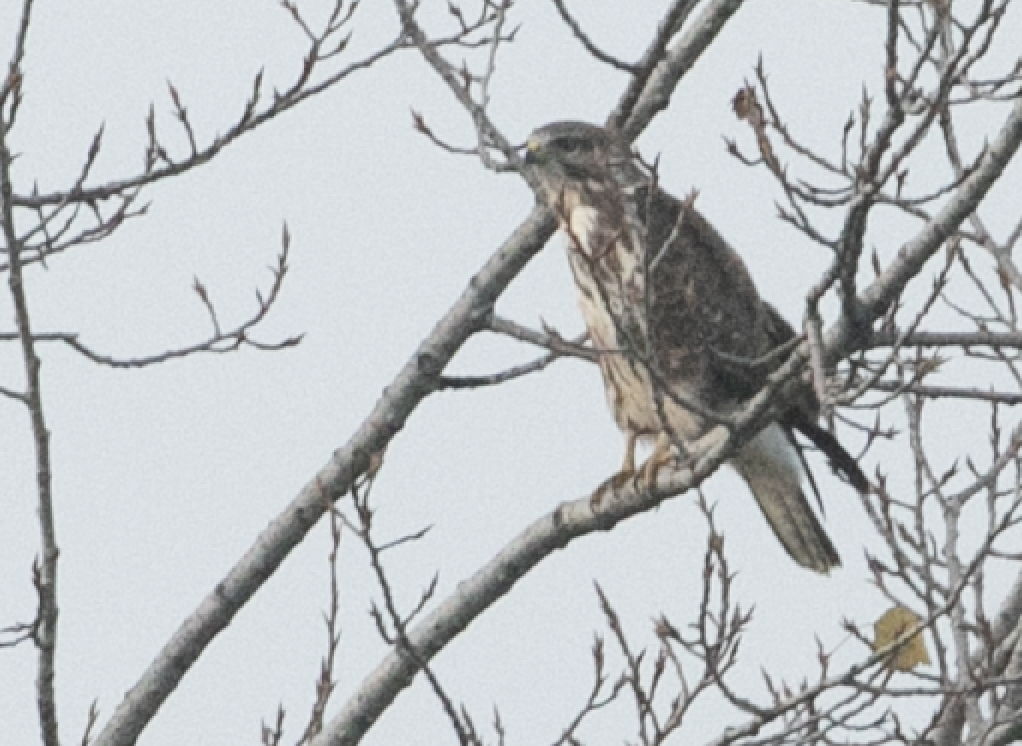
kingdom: Animalia
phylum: Chordata
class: Aves
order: Accipitriformes
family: Accipitridae
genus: Buteo
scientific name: Buteo buteo
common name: Common buzzard
